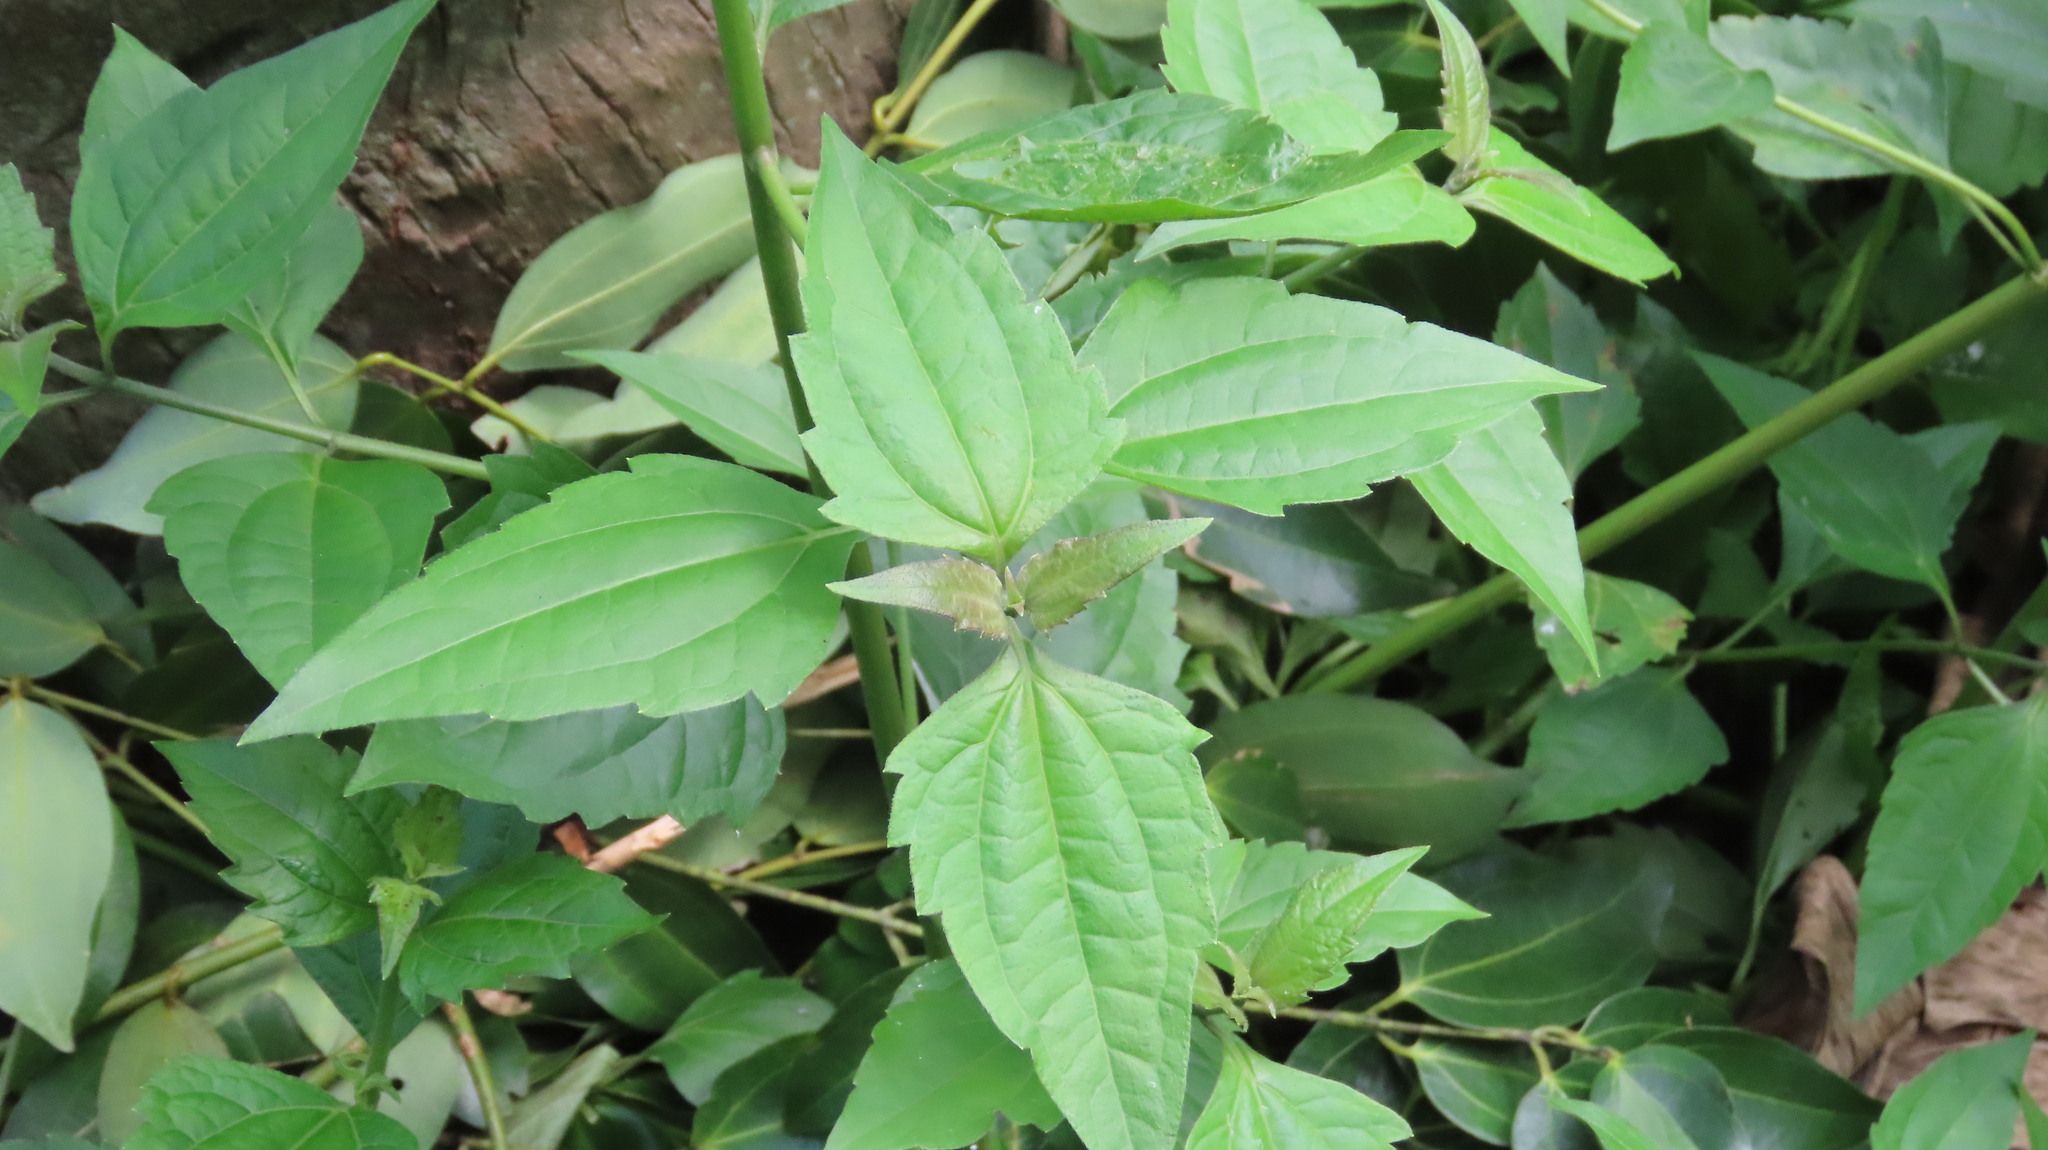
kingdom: Plantae
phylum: Tracheophyta
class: Magnoliopsida
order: Asterales
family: Asteraceae
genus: Chromolaena
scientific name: Chromolaena odorata
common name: Siamweed
